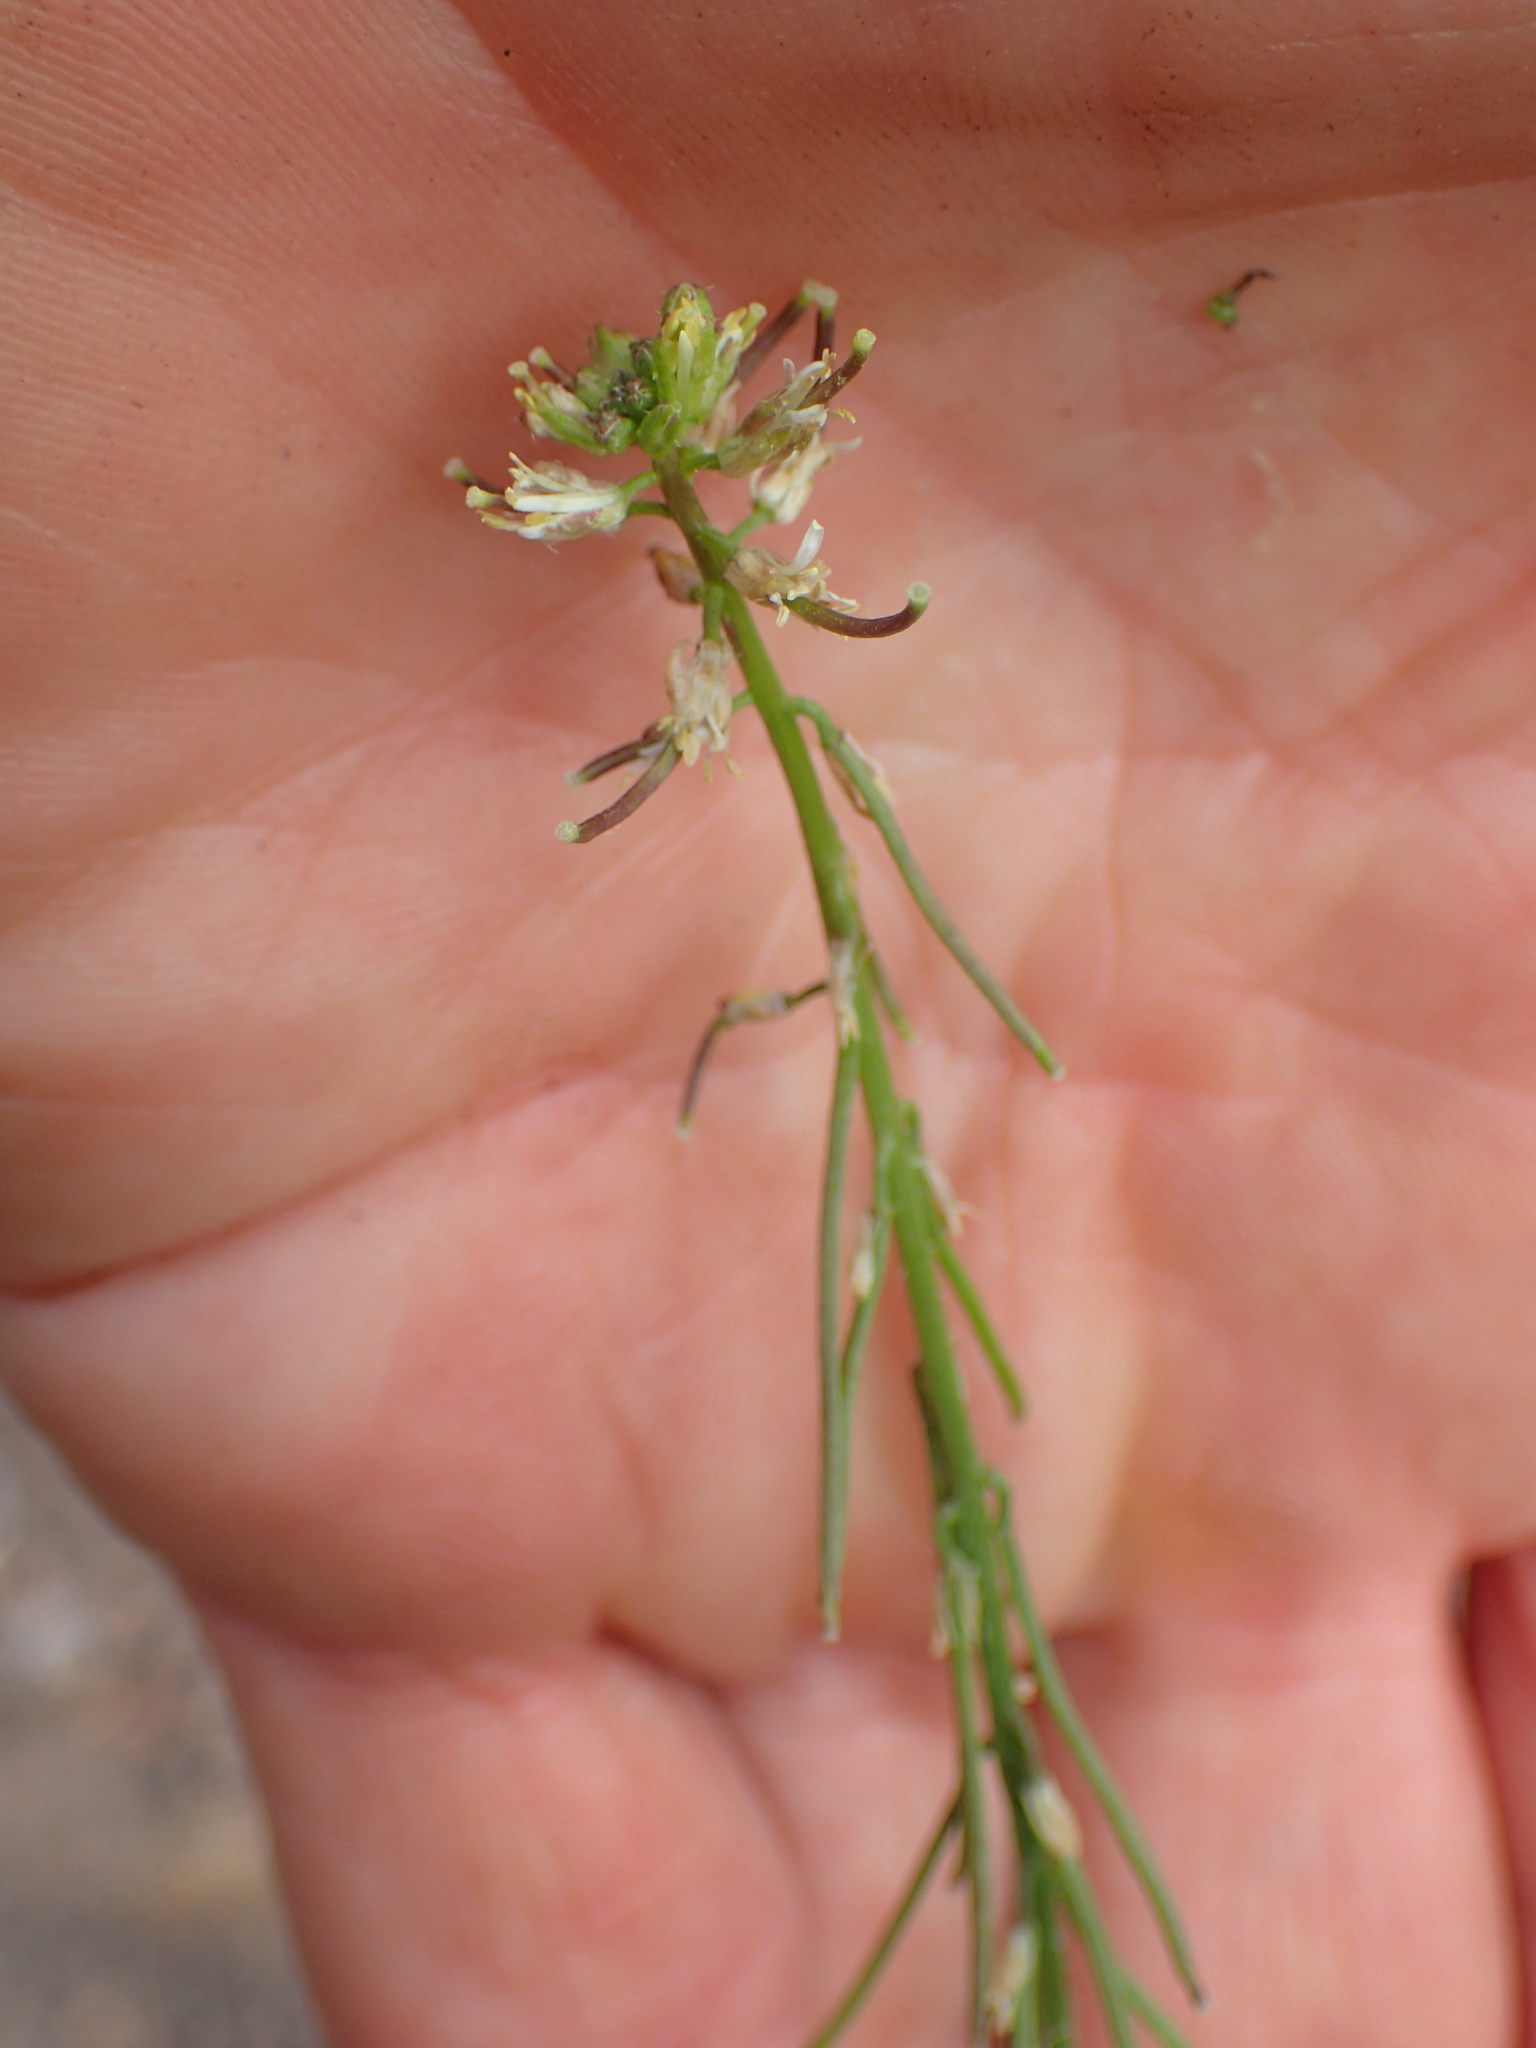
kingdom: Plantae
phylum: Tracheophyta
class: Magnoliopsida
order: Brassicales
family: Brassicaceae
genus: Streptanthus
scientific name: Streptanthus lasiophyllus
